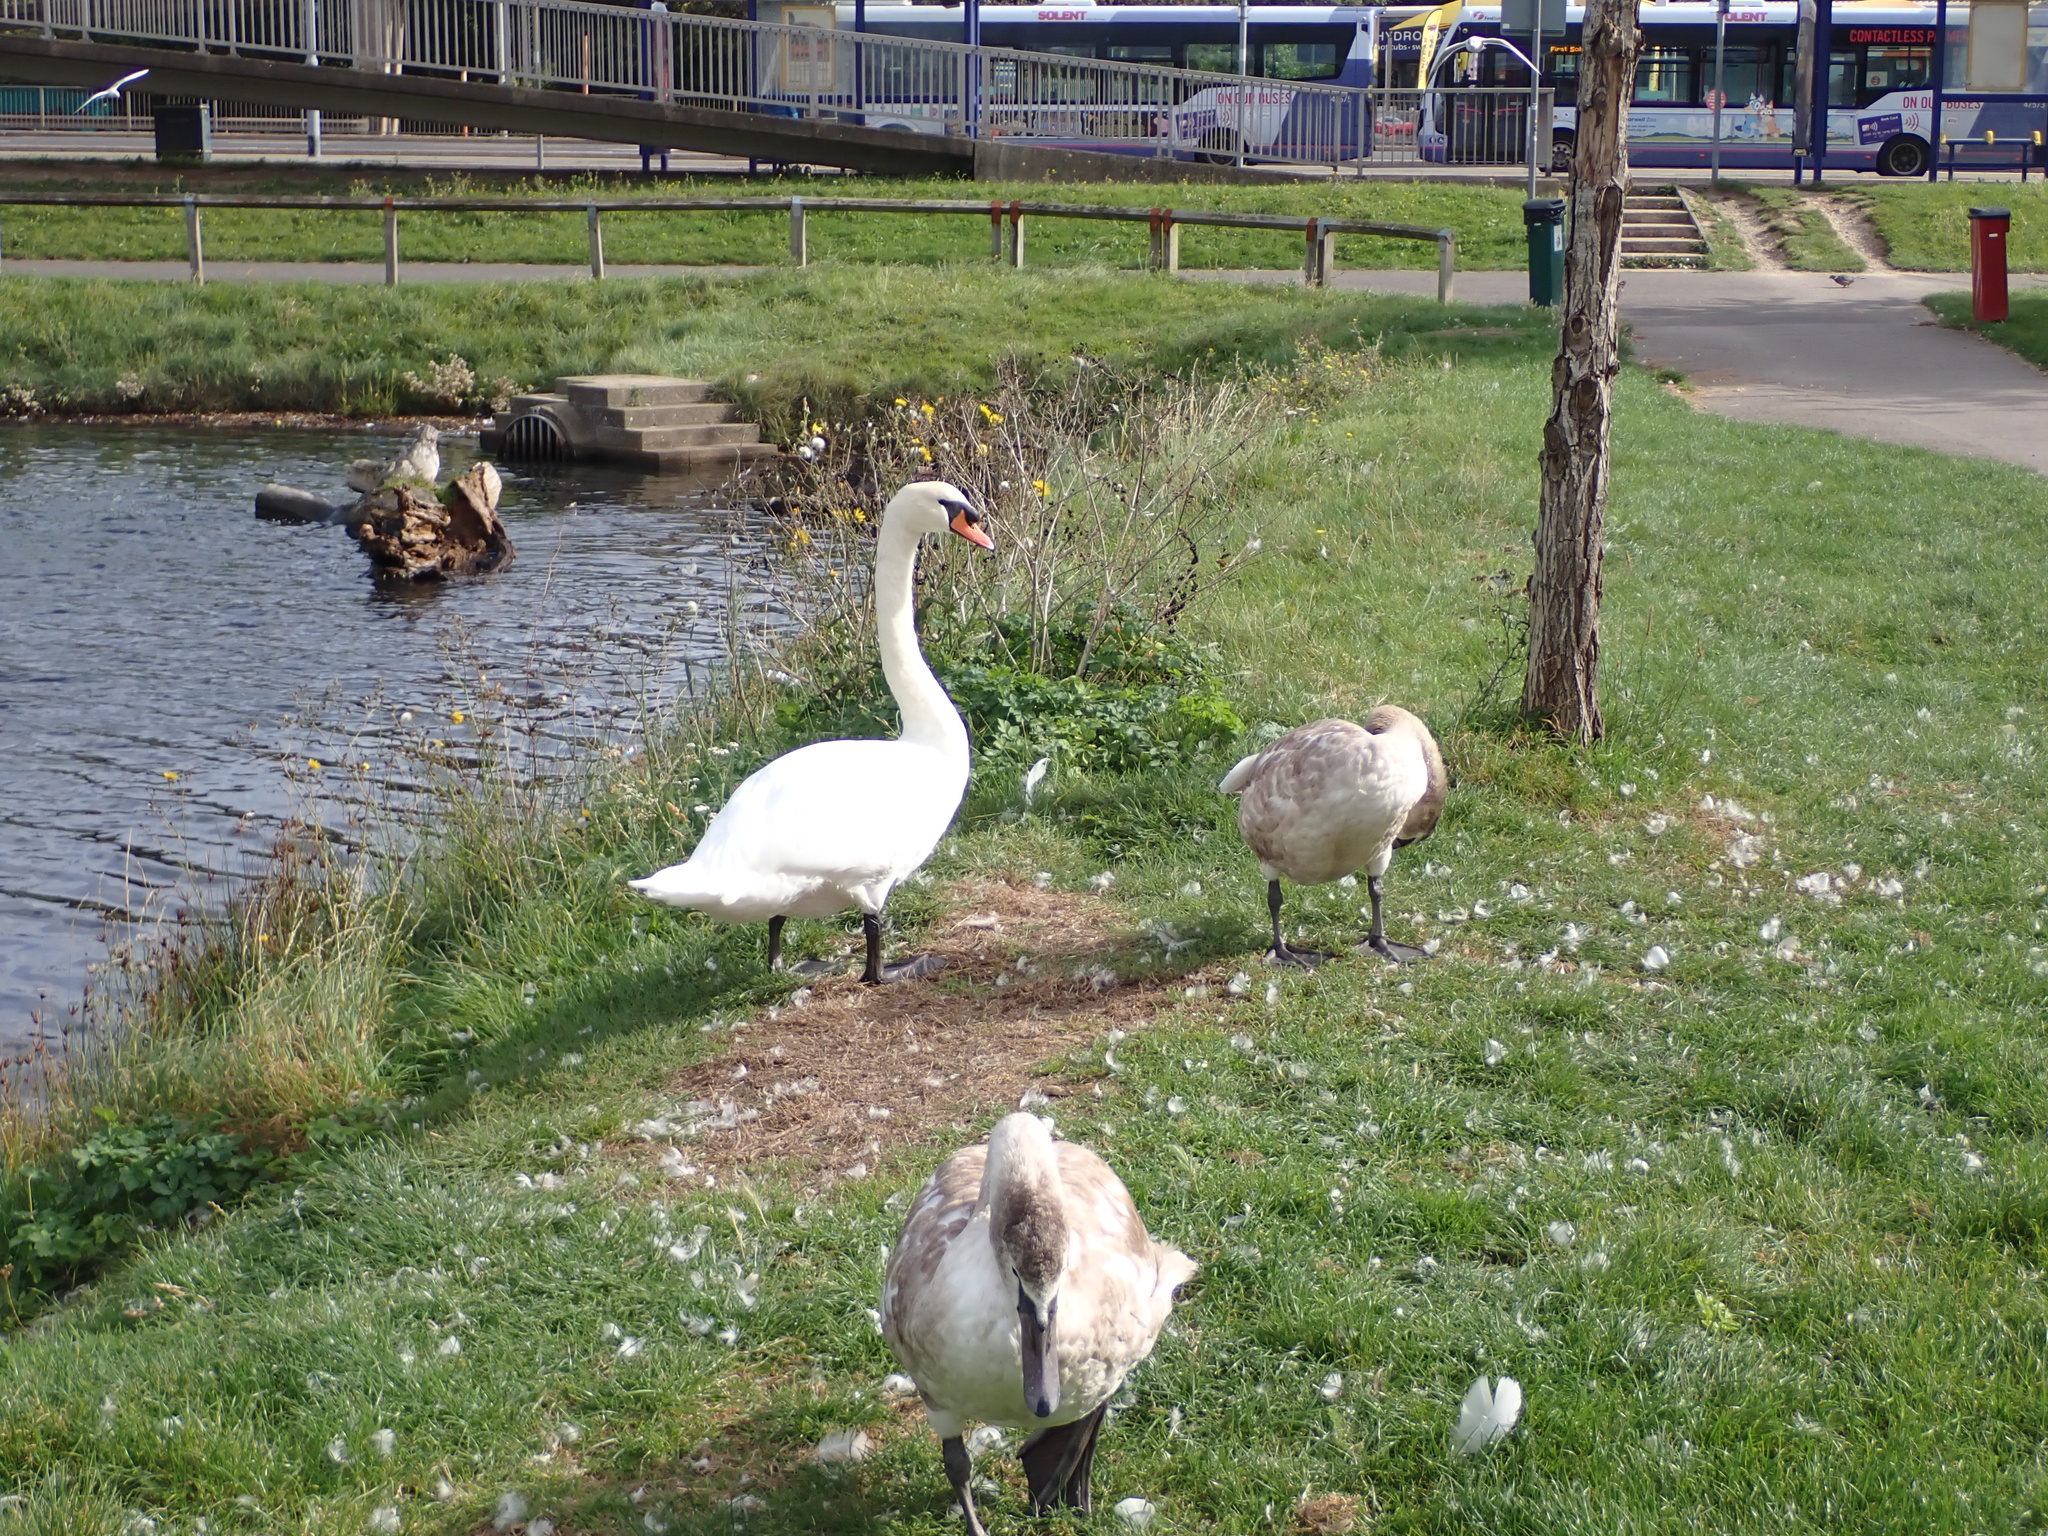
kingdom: Animalia
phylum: Chordata
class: Aves
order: Anseriformes
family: Anatidae
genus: Cygnus
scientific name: Cygnus olor
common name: Mute swan
